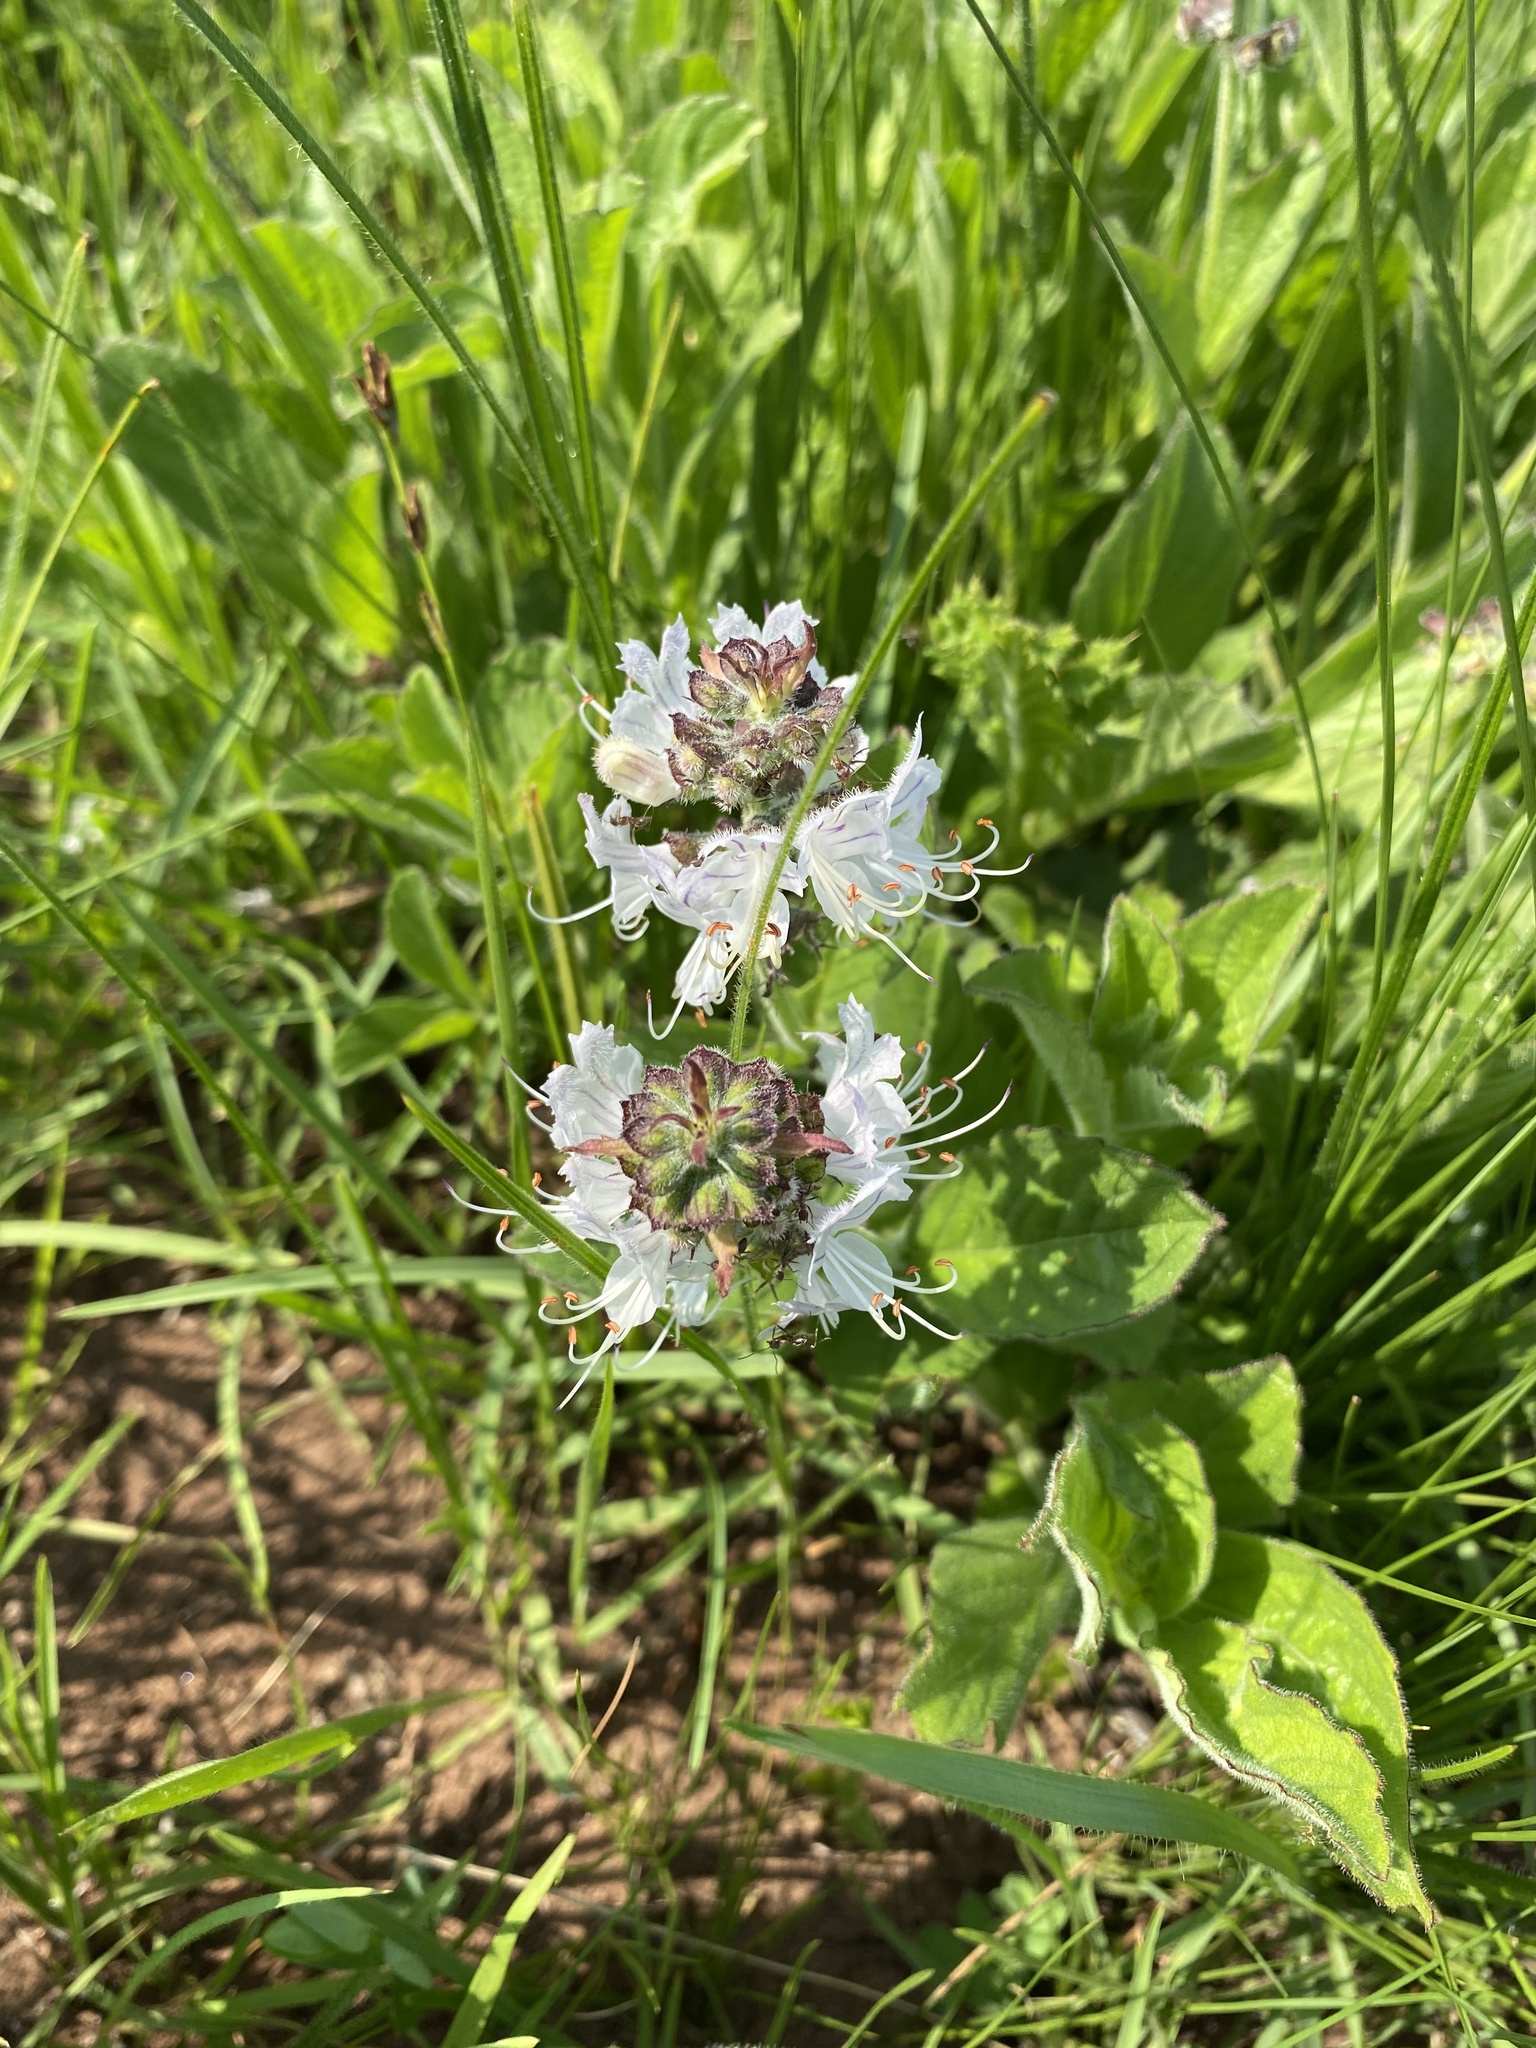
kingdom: Plantae
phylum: Tracheophyta
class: Magnoliopsida
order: Lamiales
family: Lamiaceae
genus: Ocimum
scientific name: Ocimum obovatum
